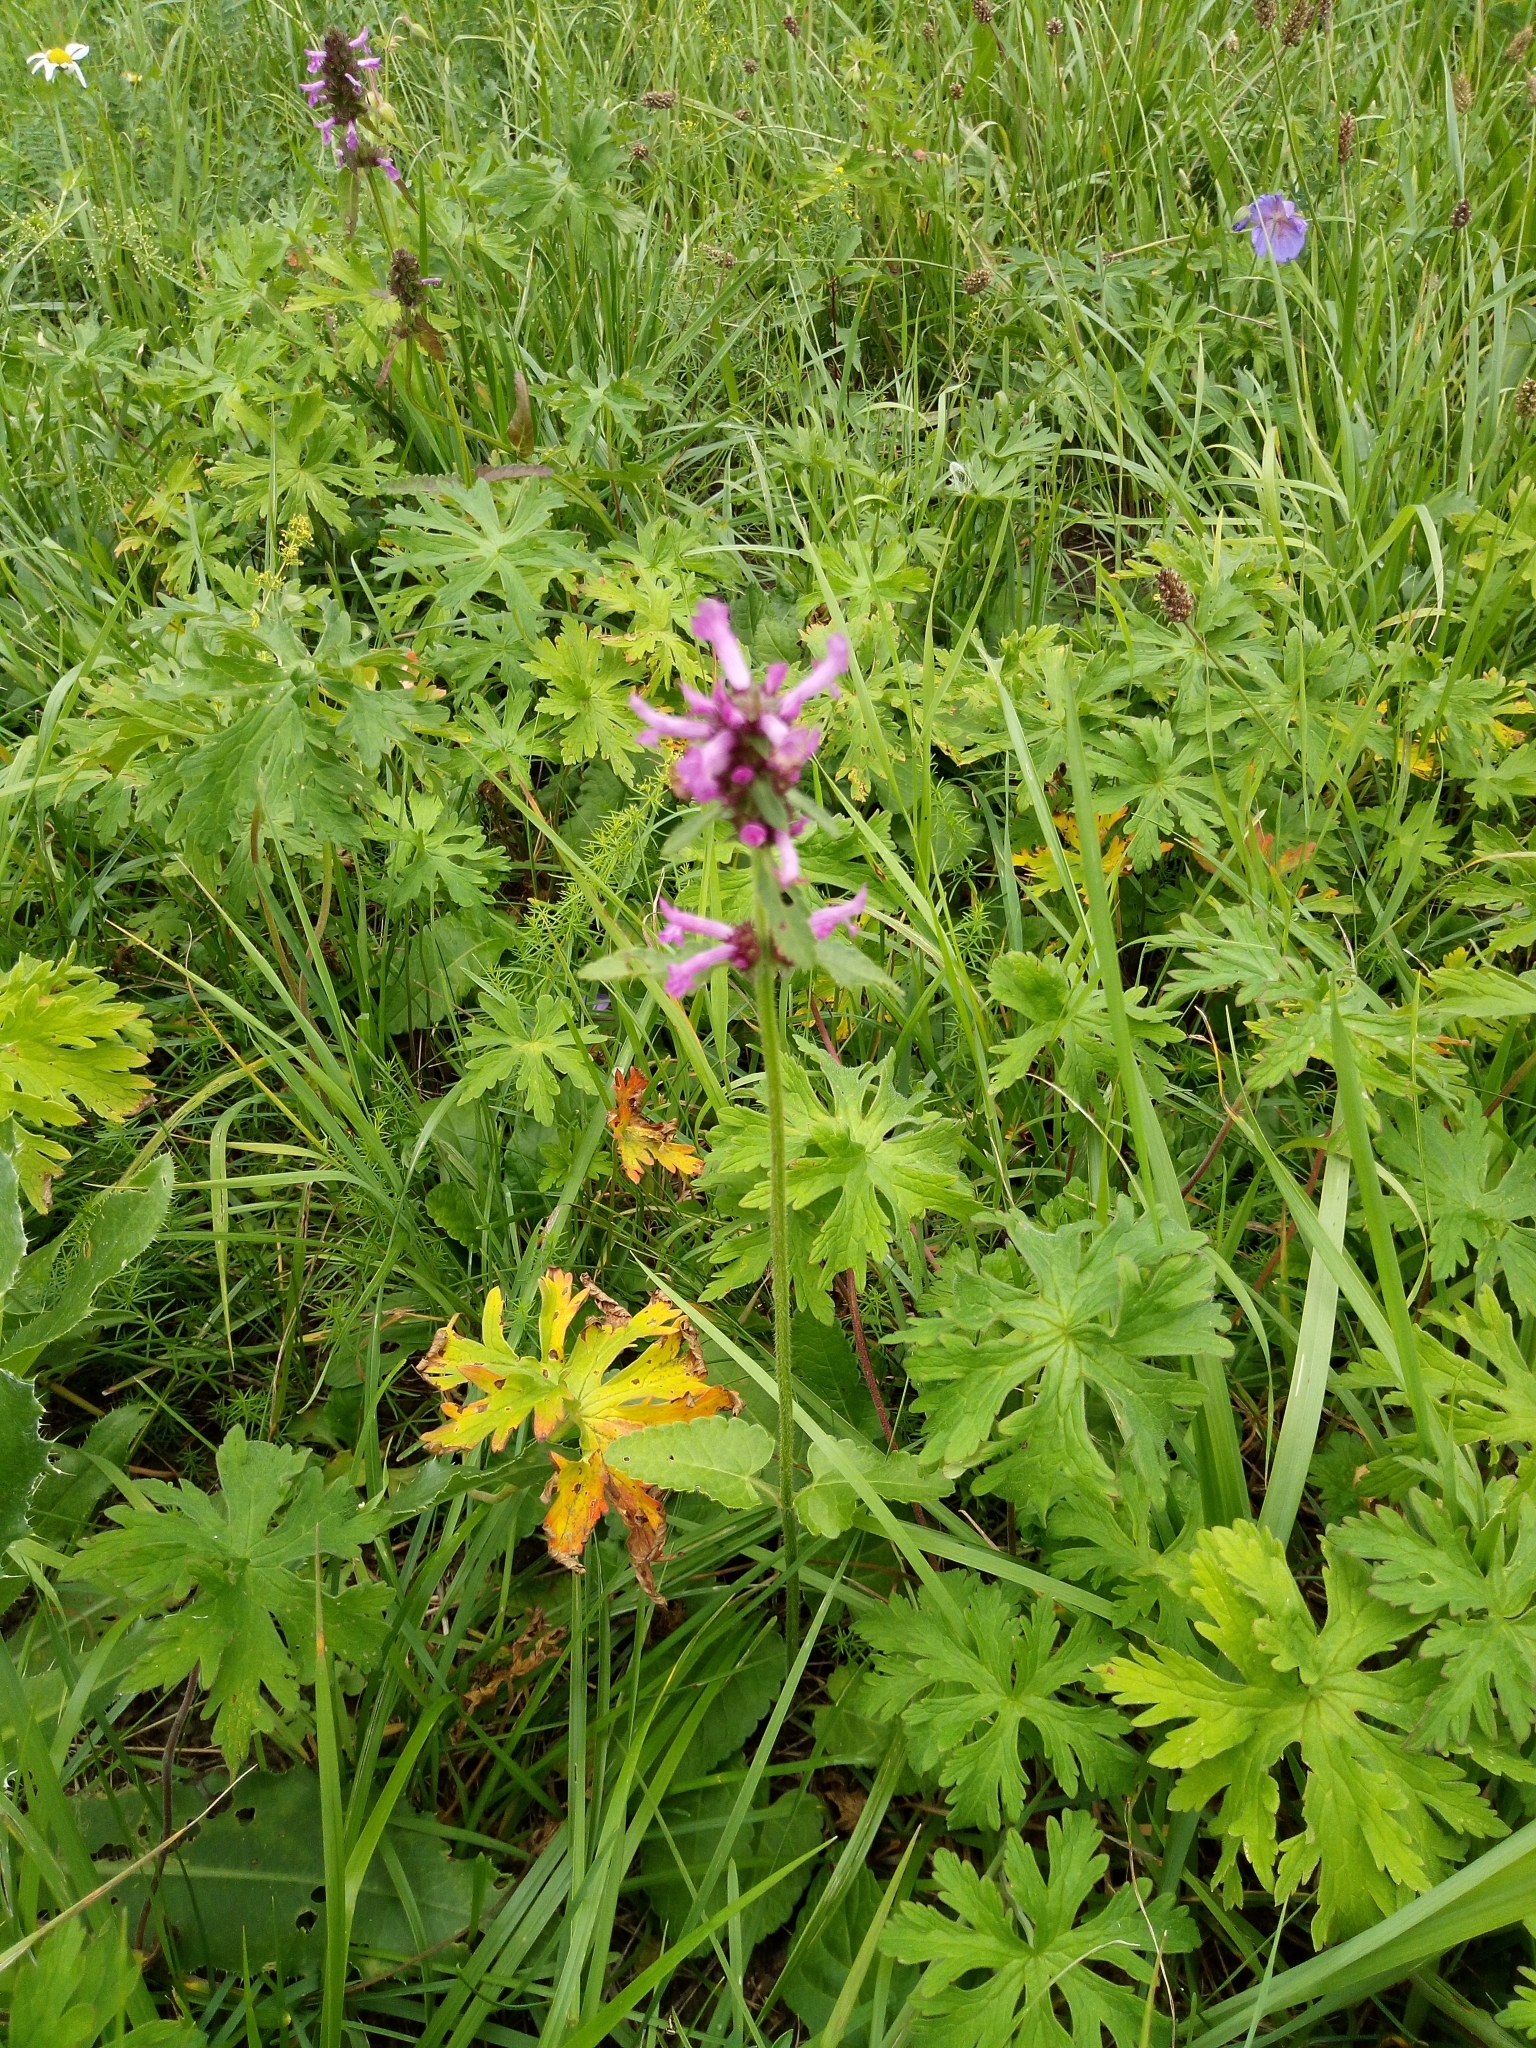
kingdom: Plantae
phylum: Tracheophyta
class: Magnoliopsida
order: Lamiales
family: Lamiaceae
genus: Betonica
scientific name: Betonica officinalis
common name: Bishop's-wort
